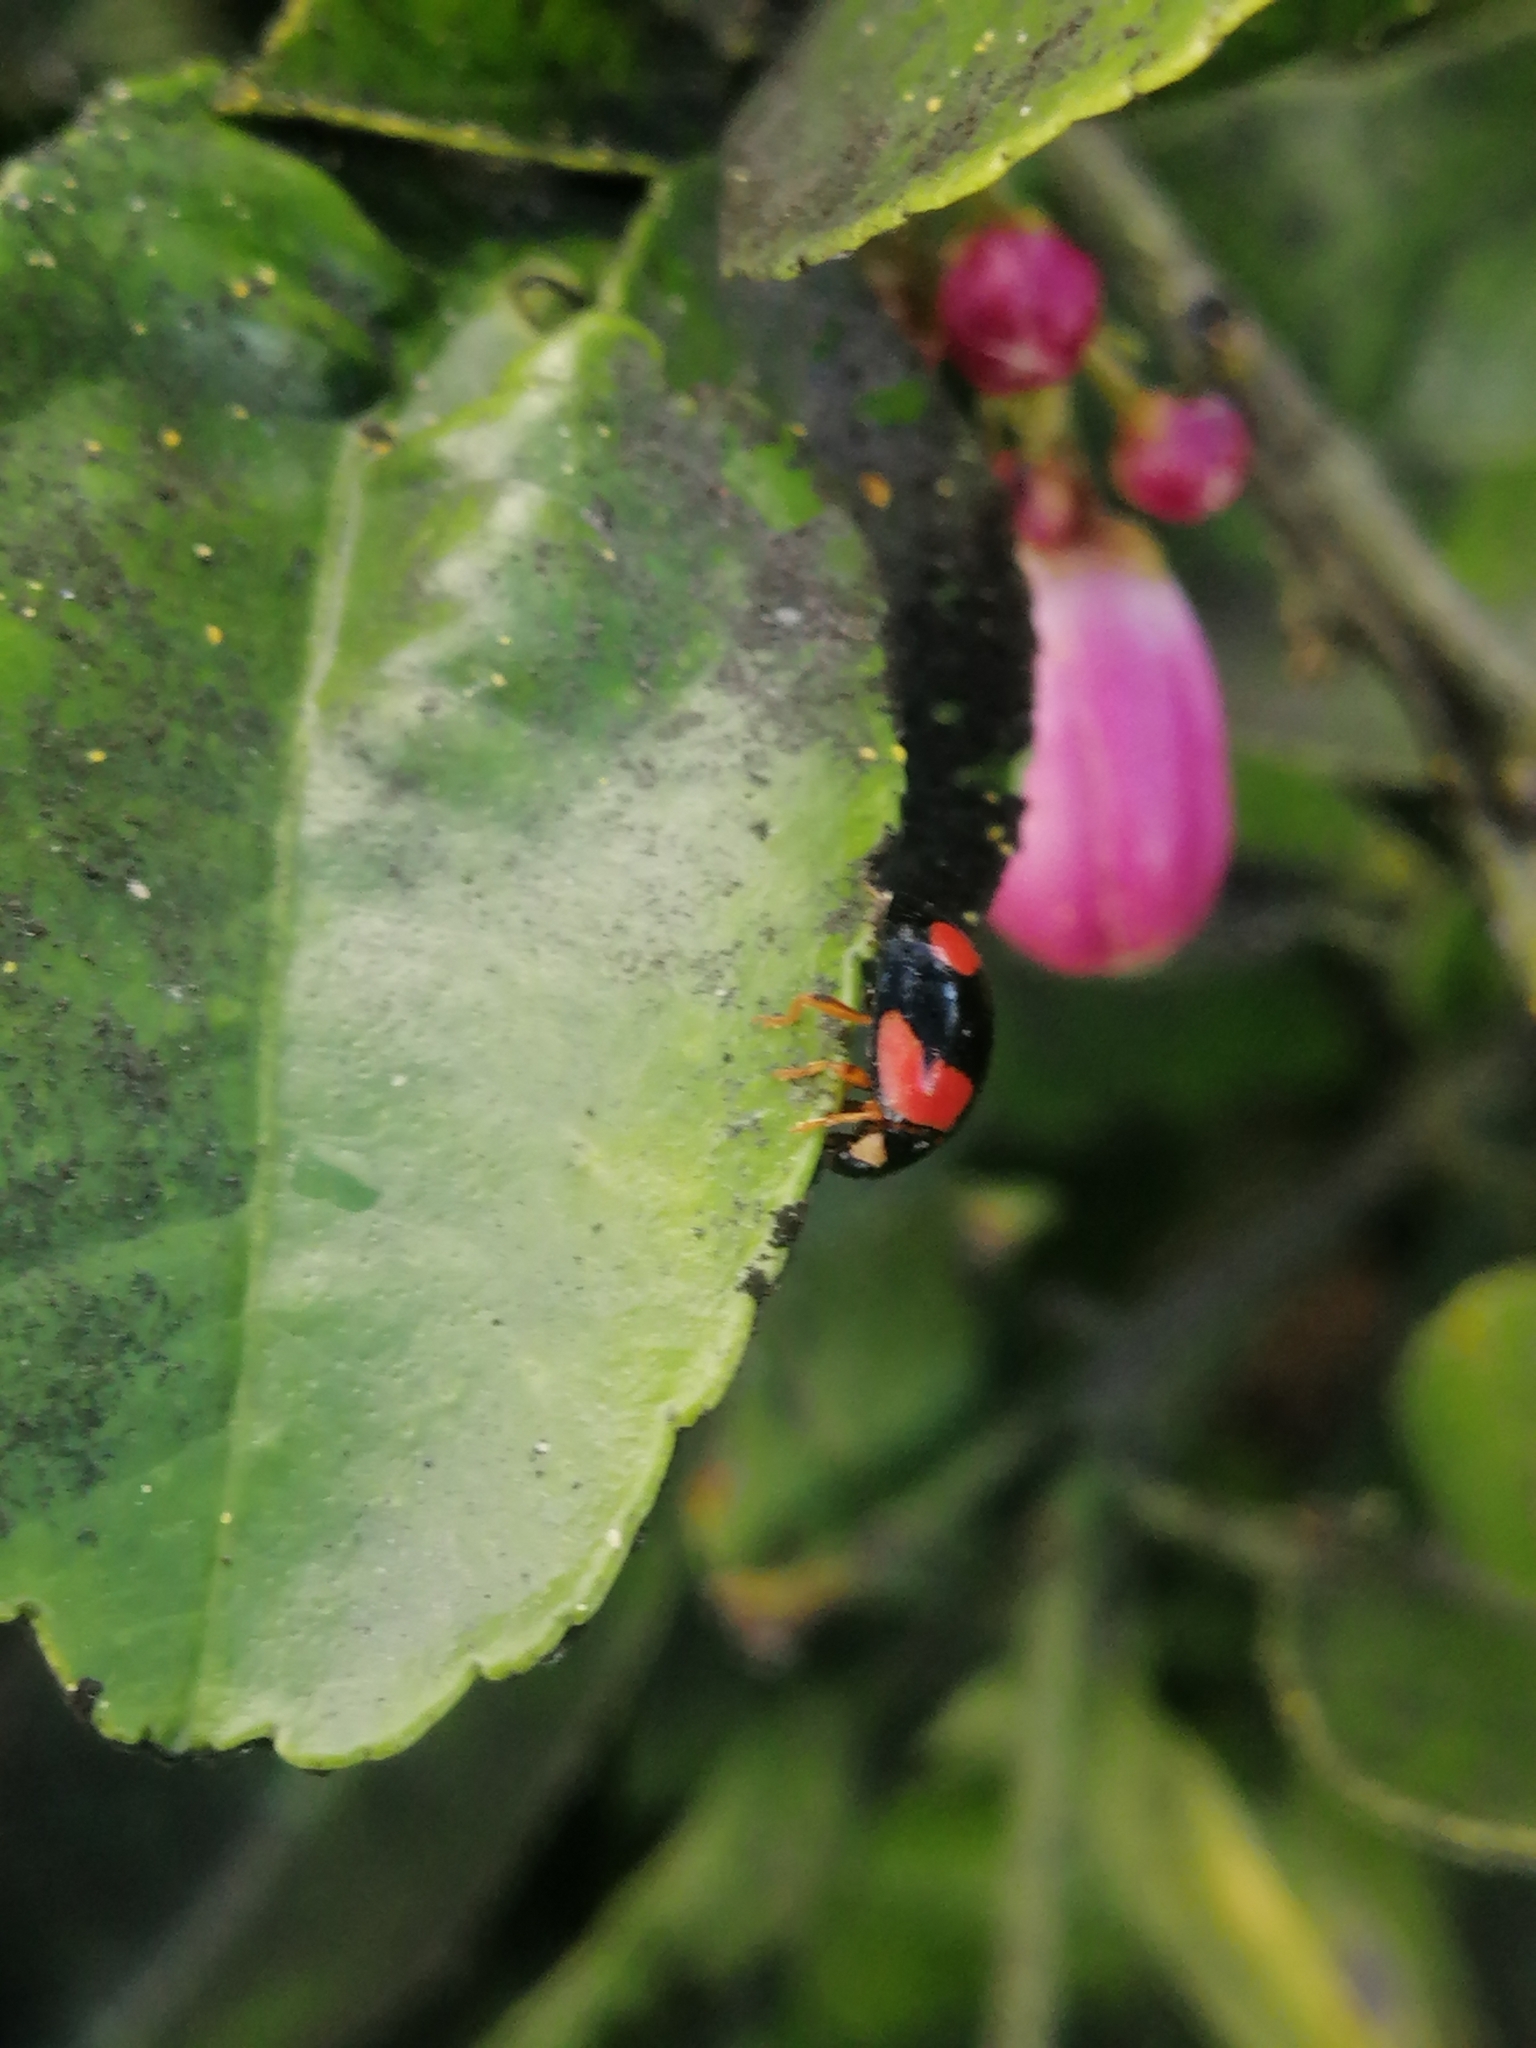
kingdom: Animalia
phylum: Arthropoda
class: Insecta
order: Coleoptera
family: Coccinellidae
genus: Cheilomenes
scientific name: Cheilomenes sexmaculata
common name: Ladybird beetle
